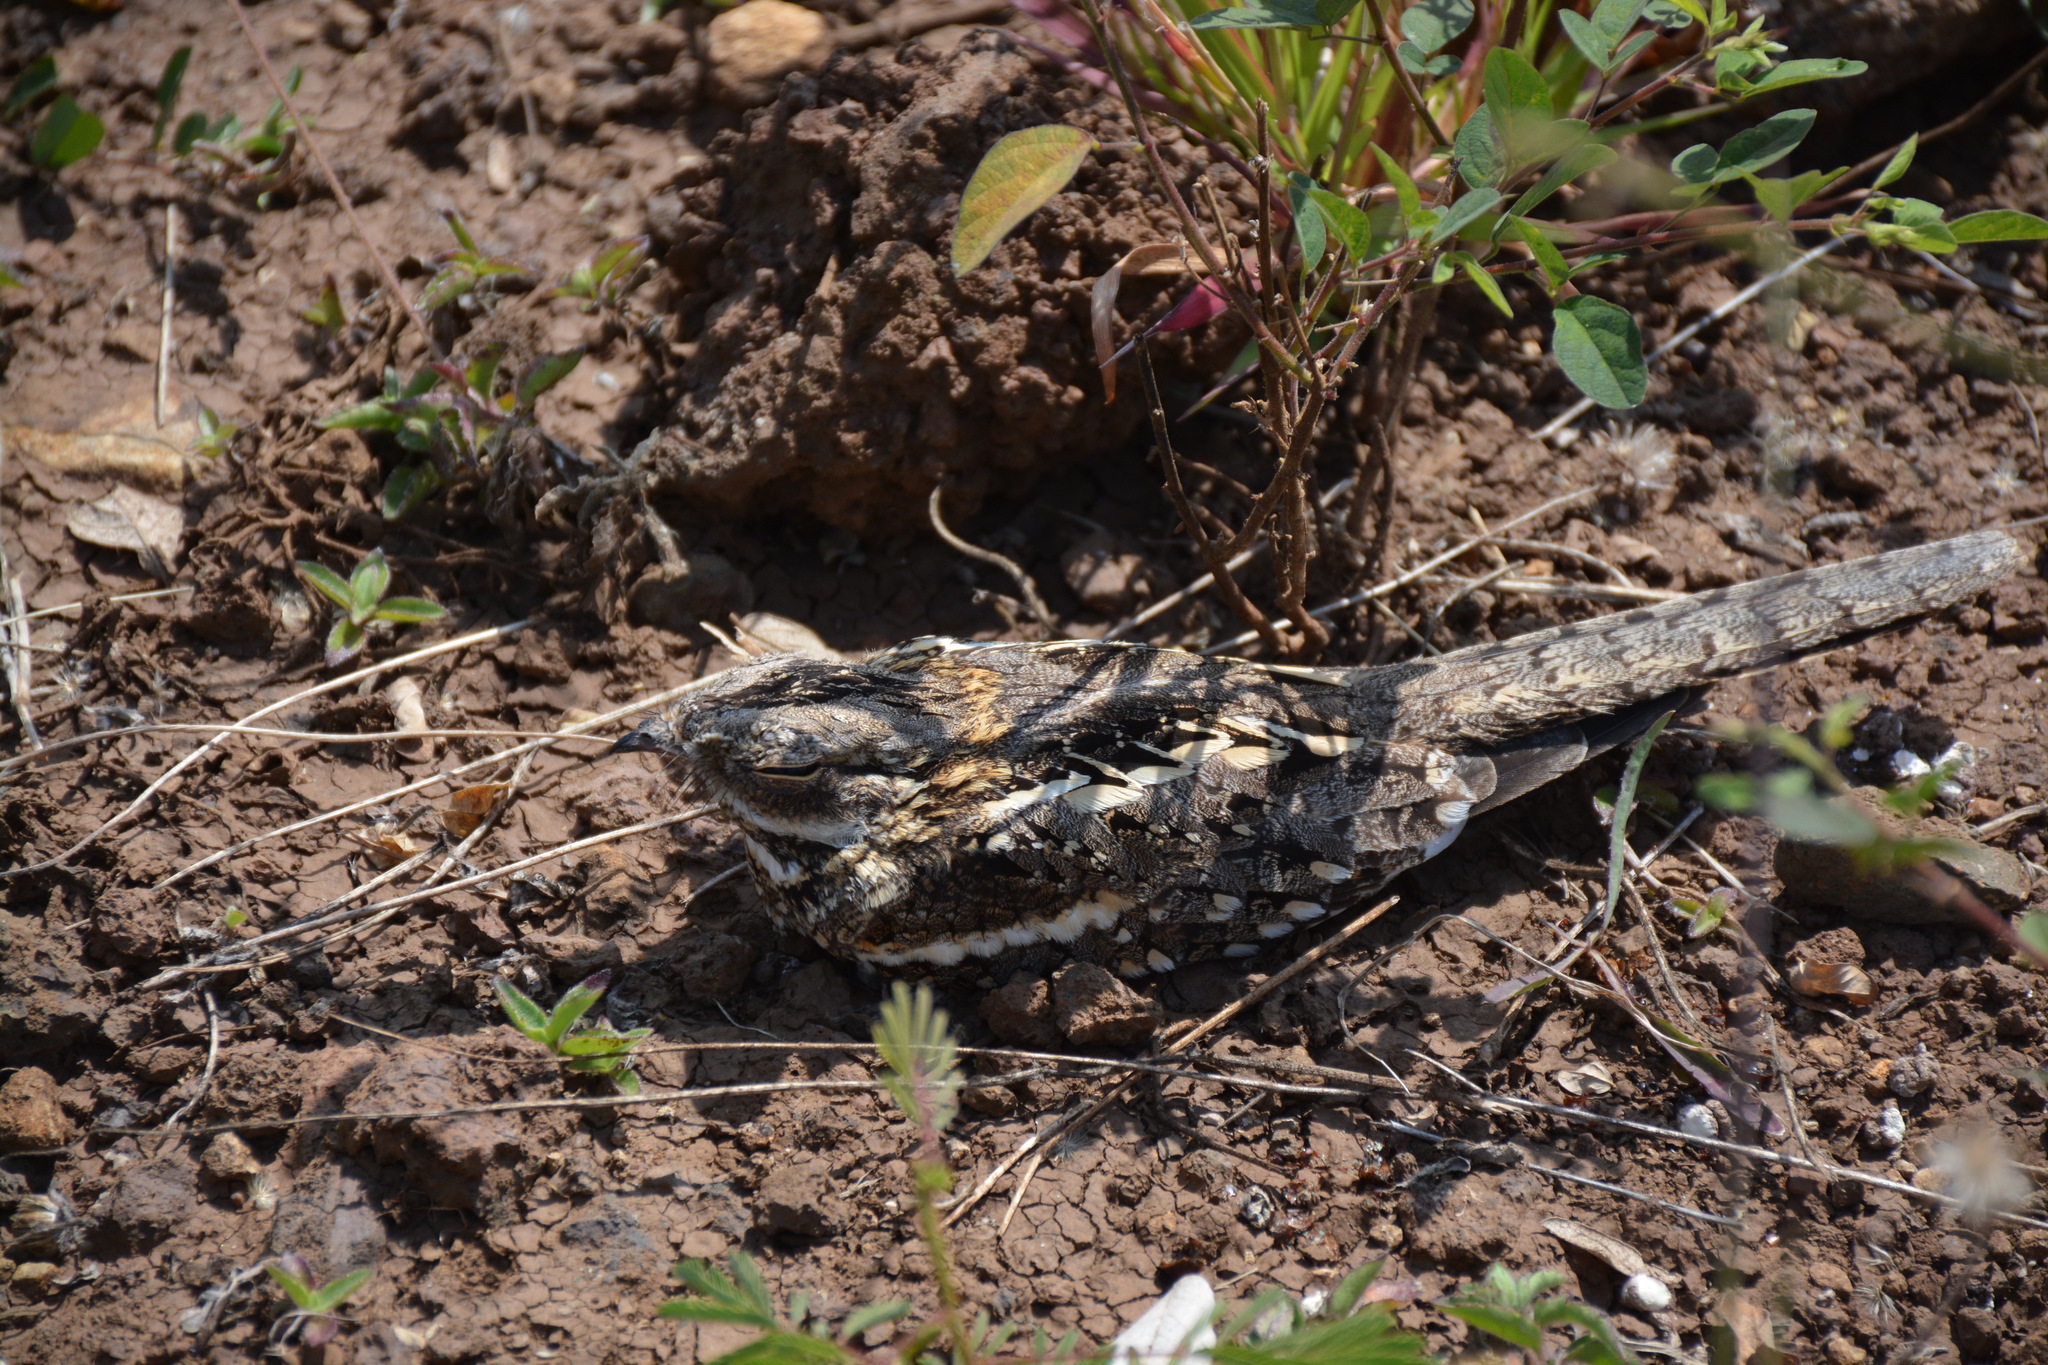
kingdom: Animalia
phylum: Chordata
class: Aves
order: Caprimulgiformes
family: Caprimulgidae
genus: Caprimulgus
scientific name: Caprimulgus clarus
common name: Slender-tailed nightjar
